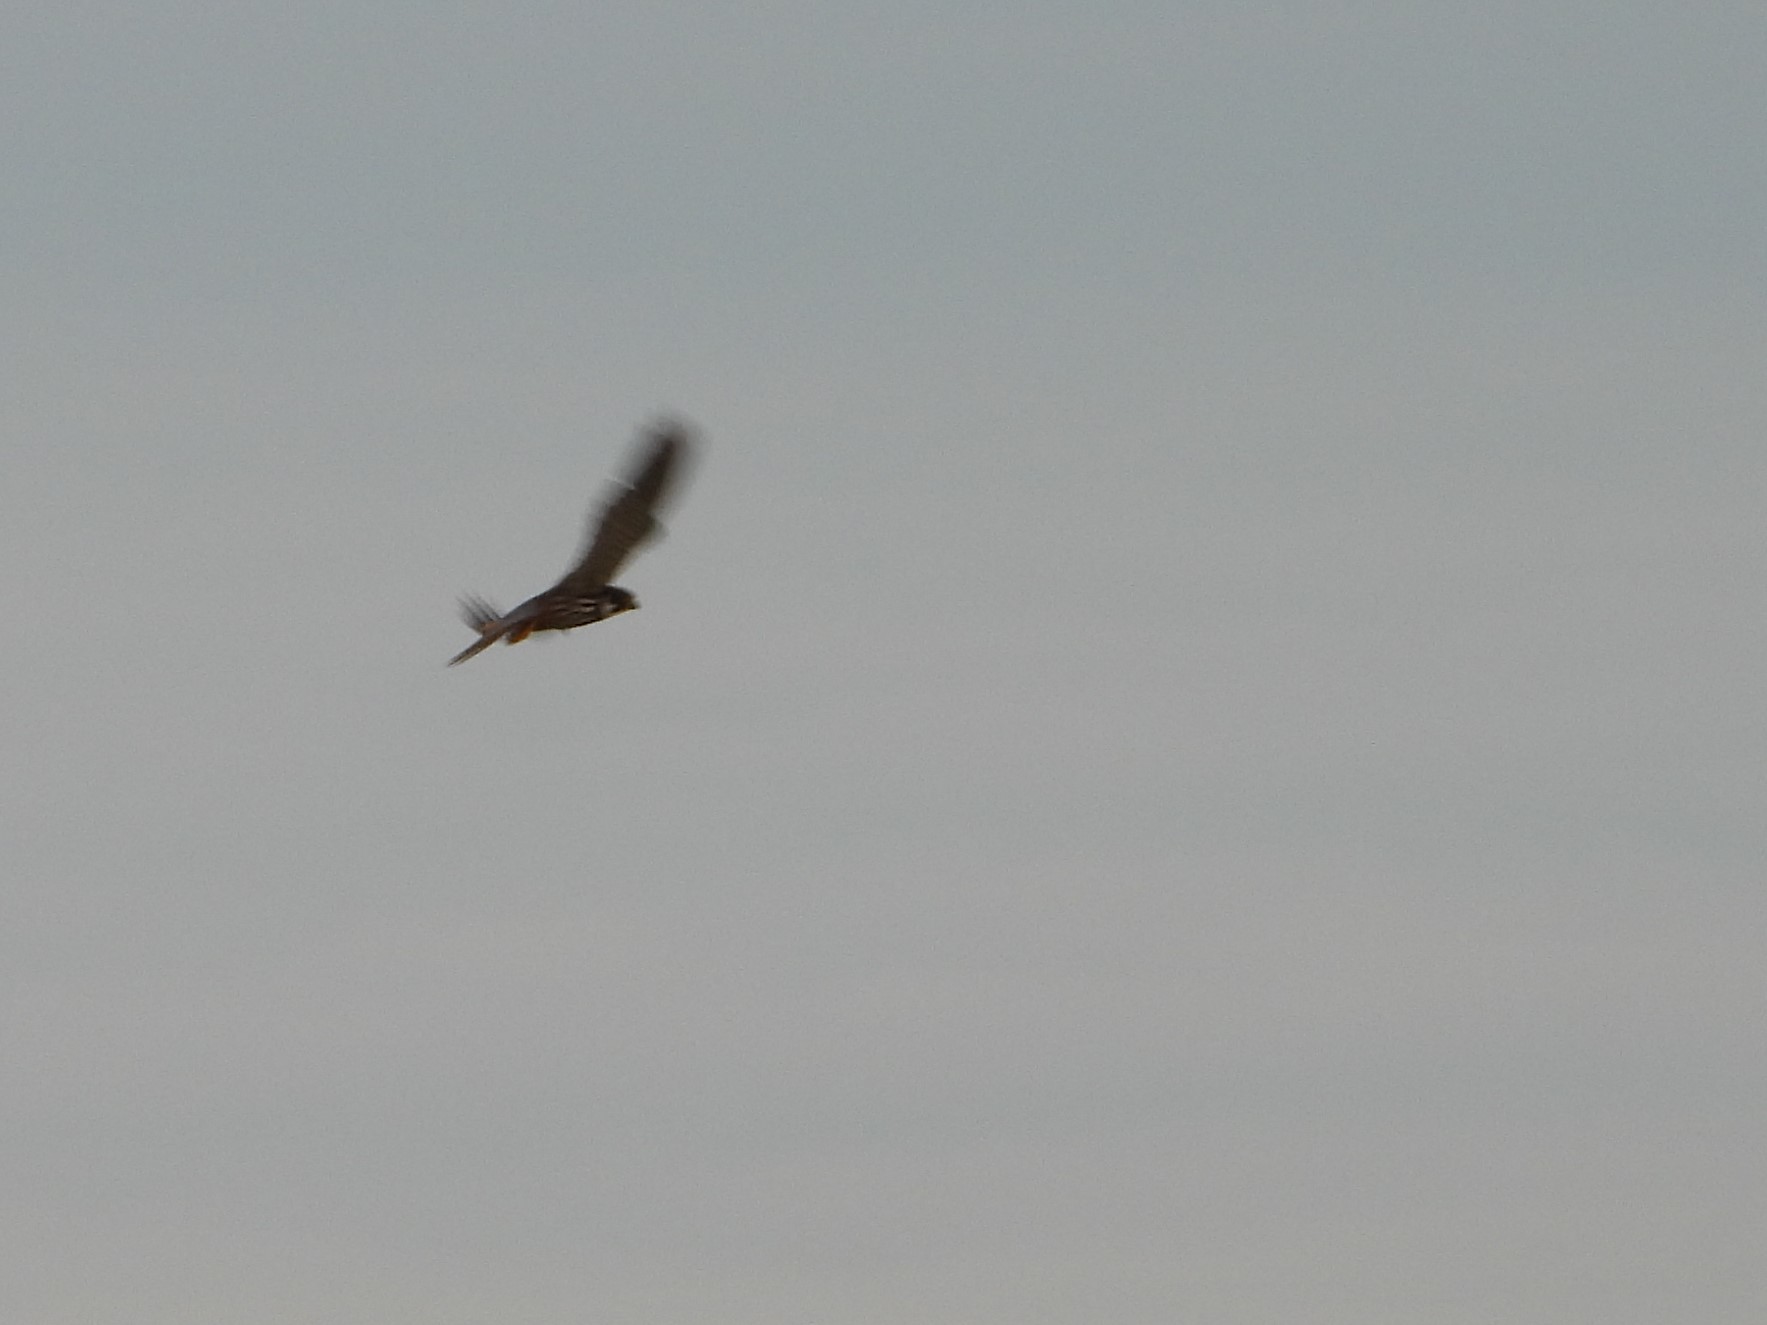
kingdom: Animalia
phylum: Chordata
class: Aves
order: Falconiformes
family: Falconidae
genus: Falco
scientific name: Falco subbuteo
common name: Eurasian hobby
